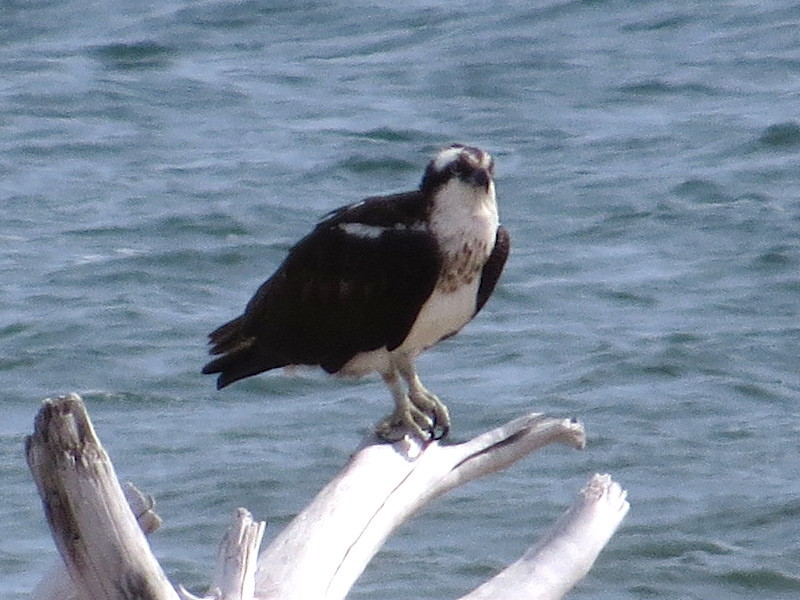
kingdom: Animalia
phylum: Chordata
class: Aves
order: Accipitriformes
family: Pandionidae
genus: Pandion
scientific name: Pandion haliaetus
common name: Osprey
